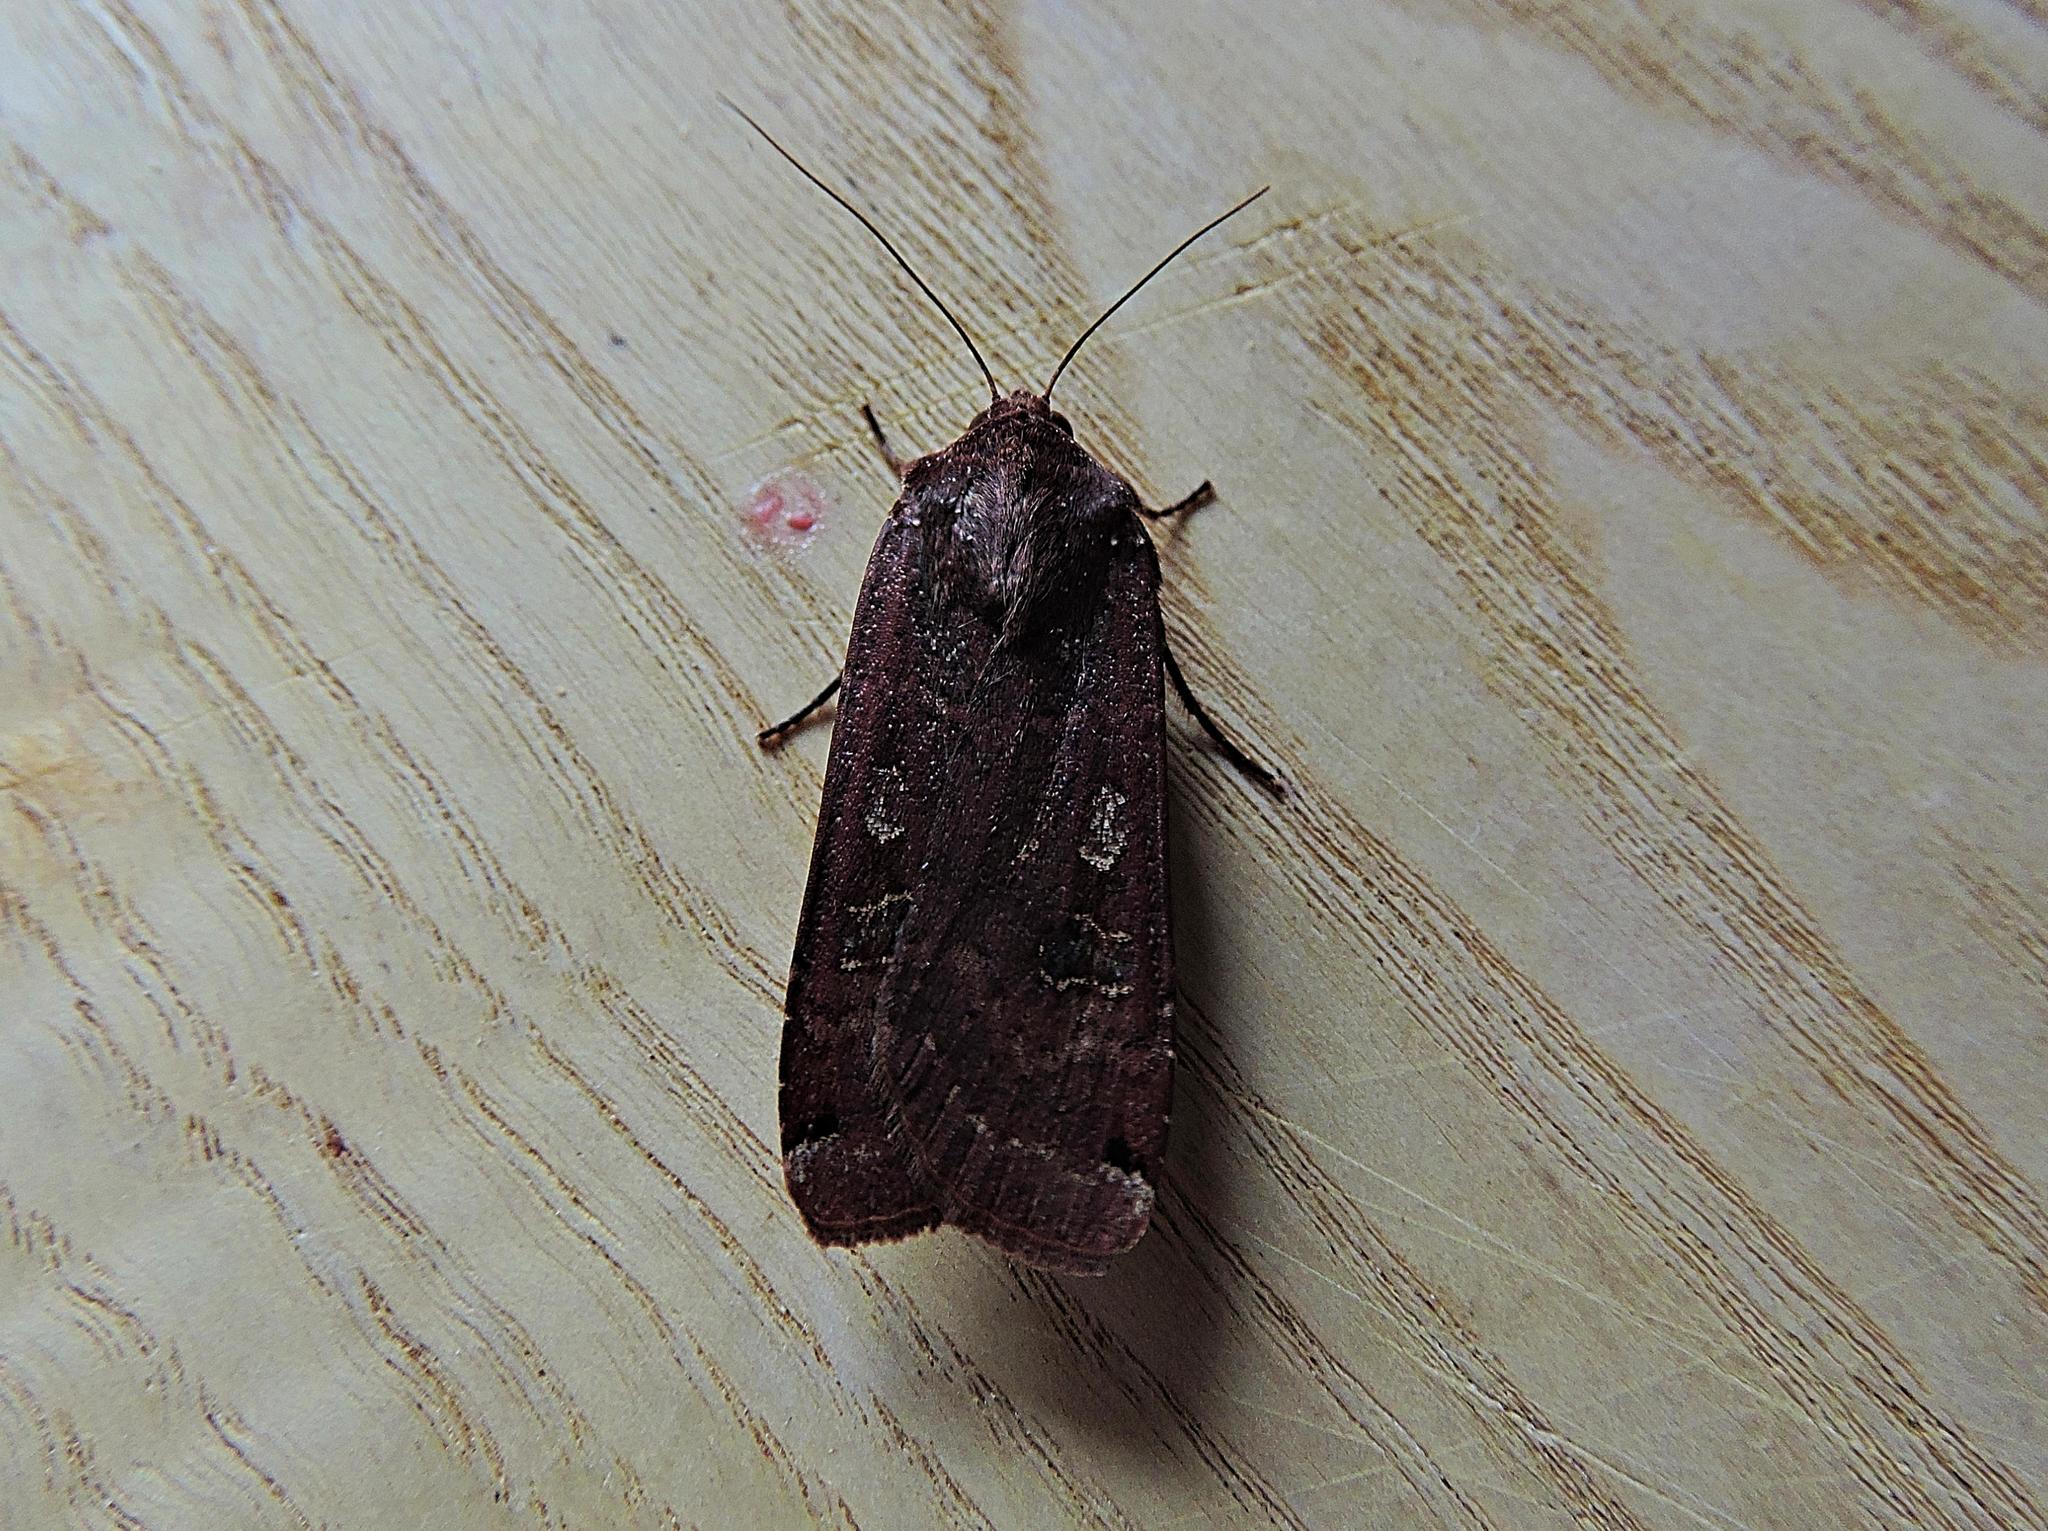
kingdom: Animalia
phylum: Arthropoda
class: Insecta
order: Lepidoptera
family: Noctuidae
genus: Noctua
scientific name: Noctua pronuba
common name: Large yellow underwing
